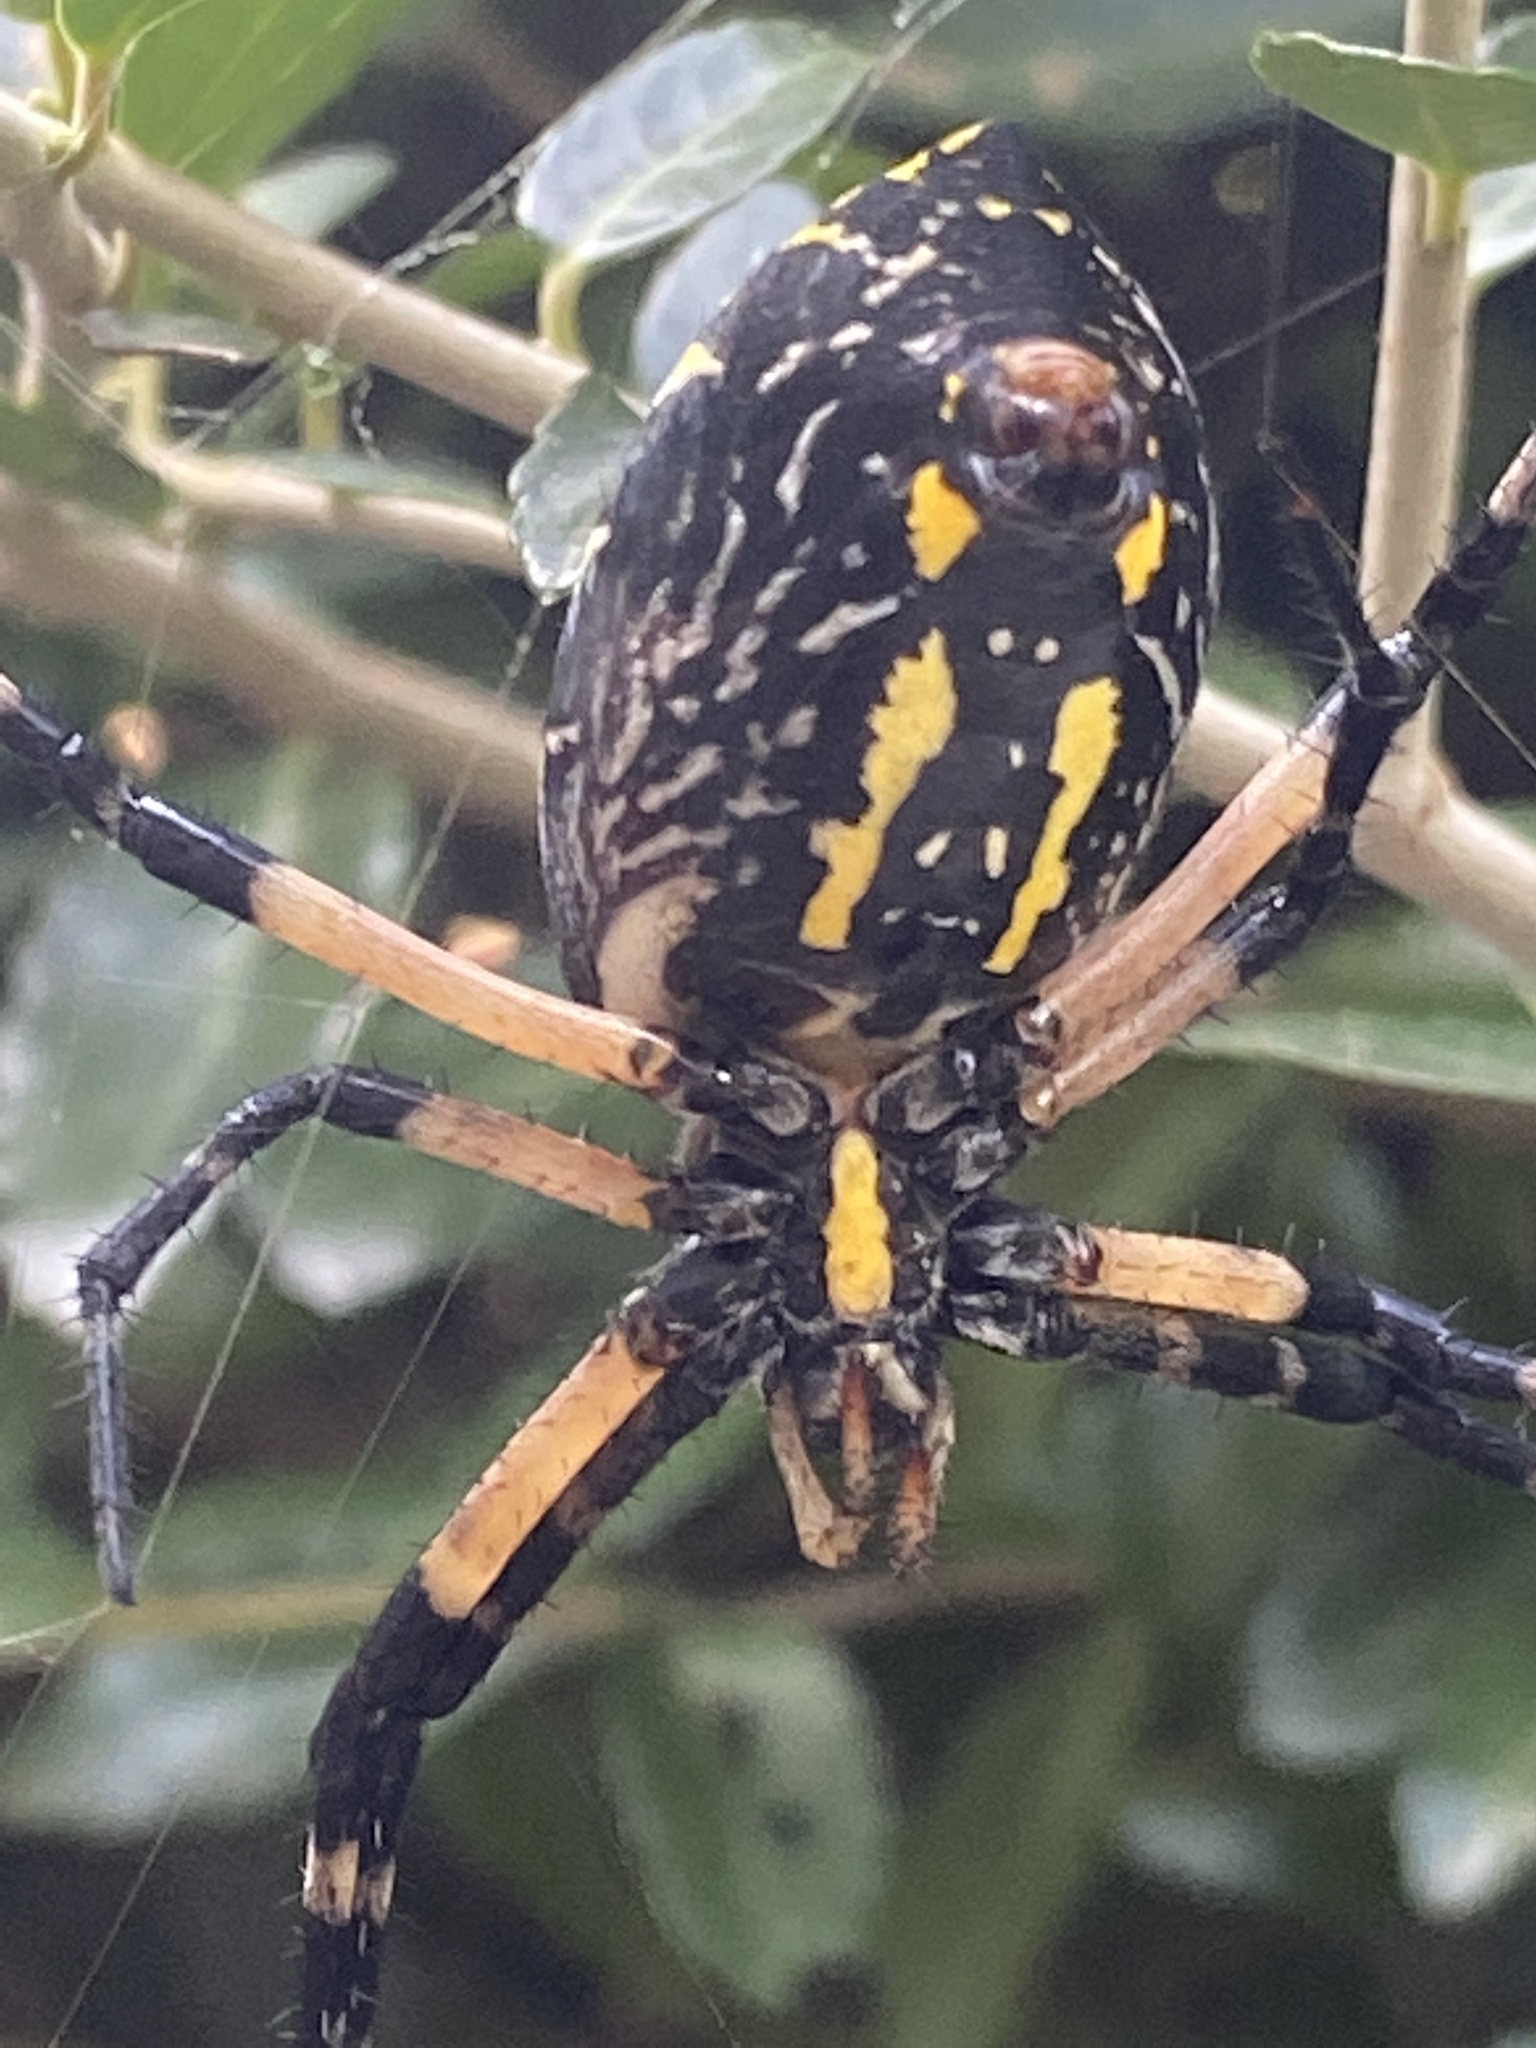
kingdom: Animalia
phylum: Arthropoda
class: Arachnida
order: Araneae
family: Araneidae
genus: Argiope
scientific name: Argiope aurantia
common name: Orb weavers
